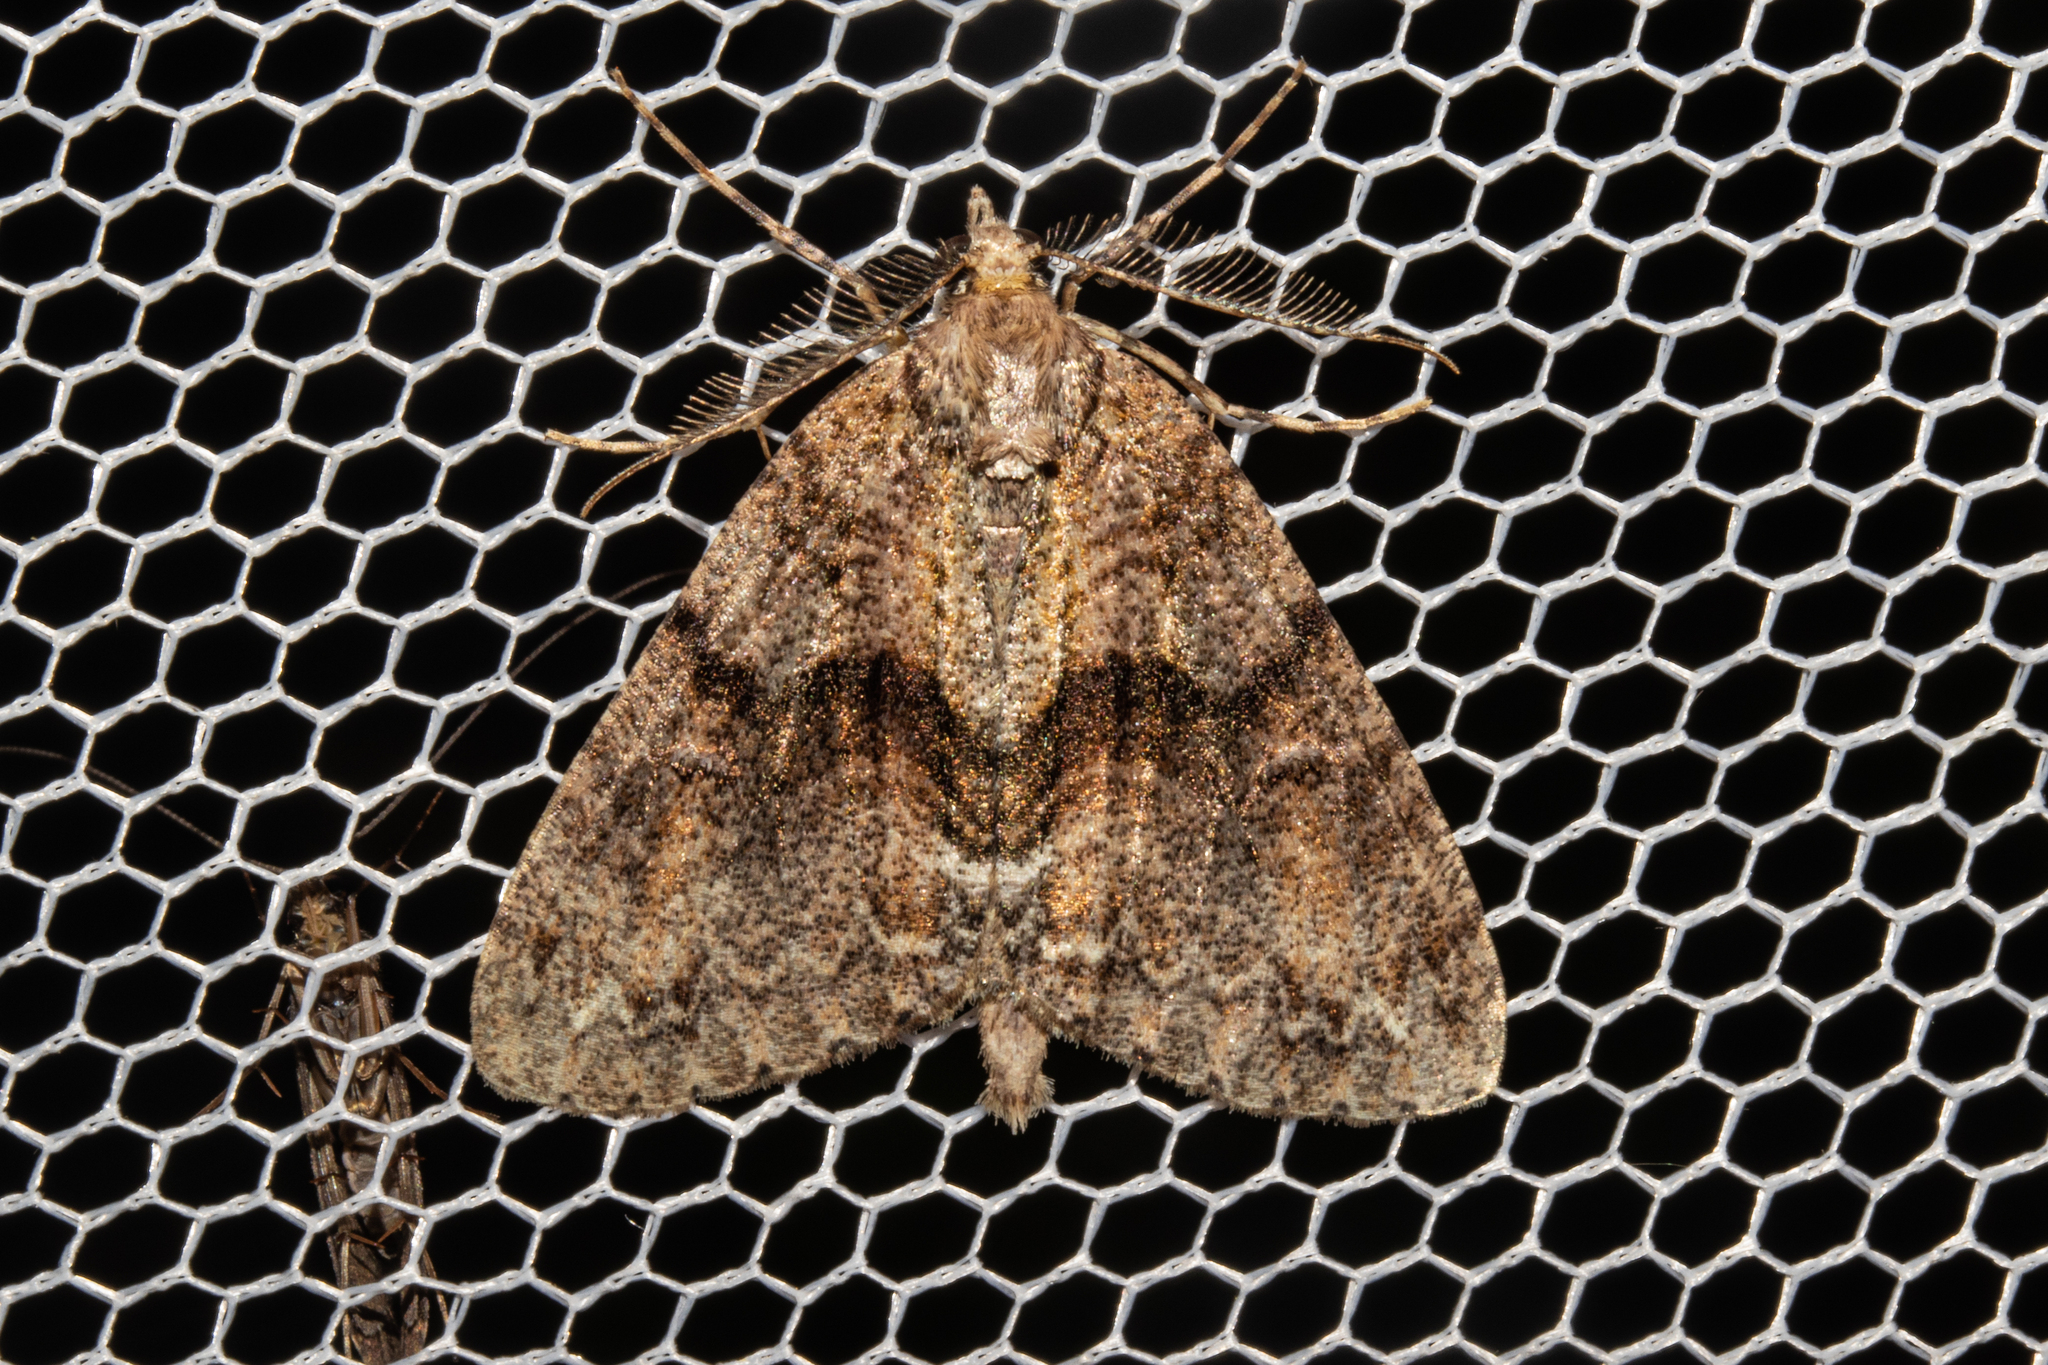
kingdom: Animalia
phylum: Arthropoda
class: Insecta
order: Lepidoptera
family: Geometridae
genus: Pseudocoremia
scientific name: Pseudocoremia suavis
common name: Common forest looper
